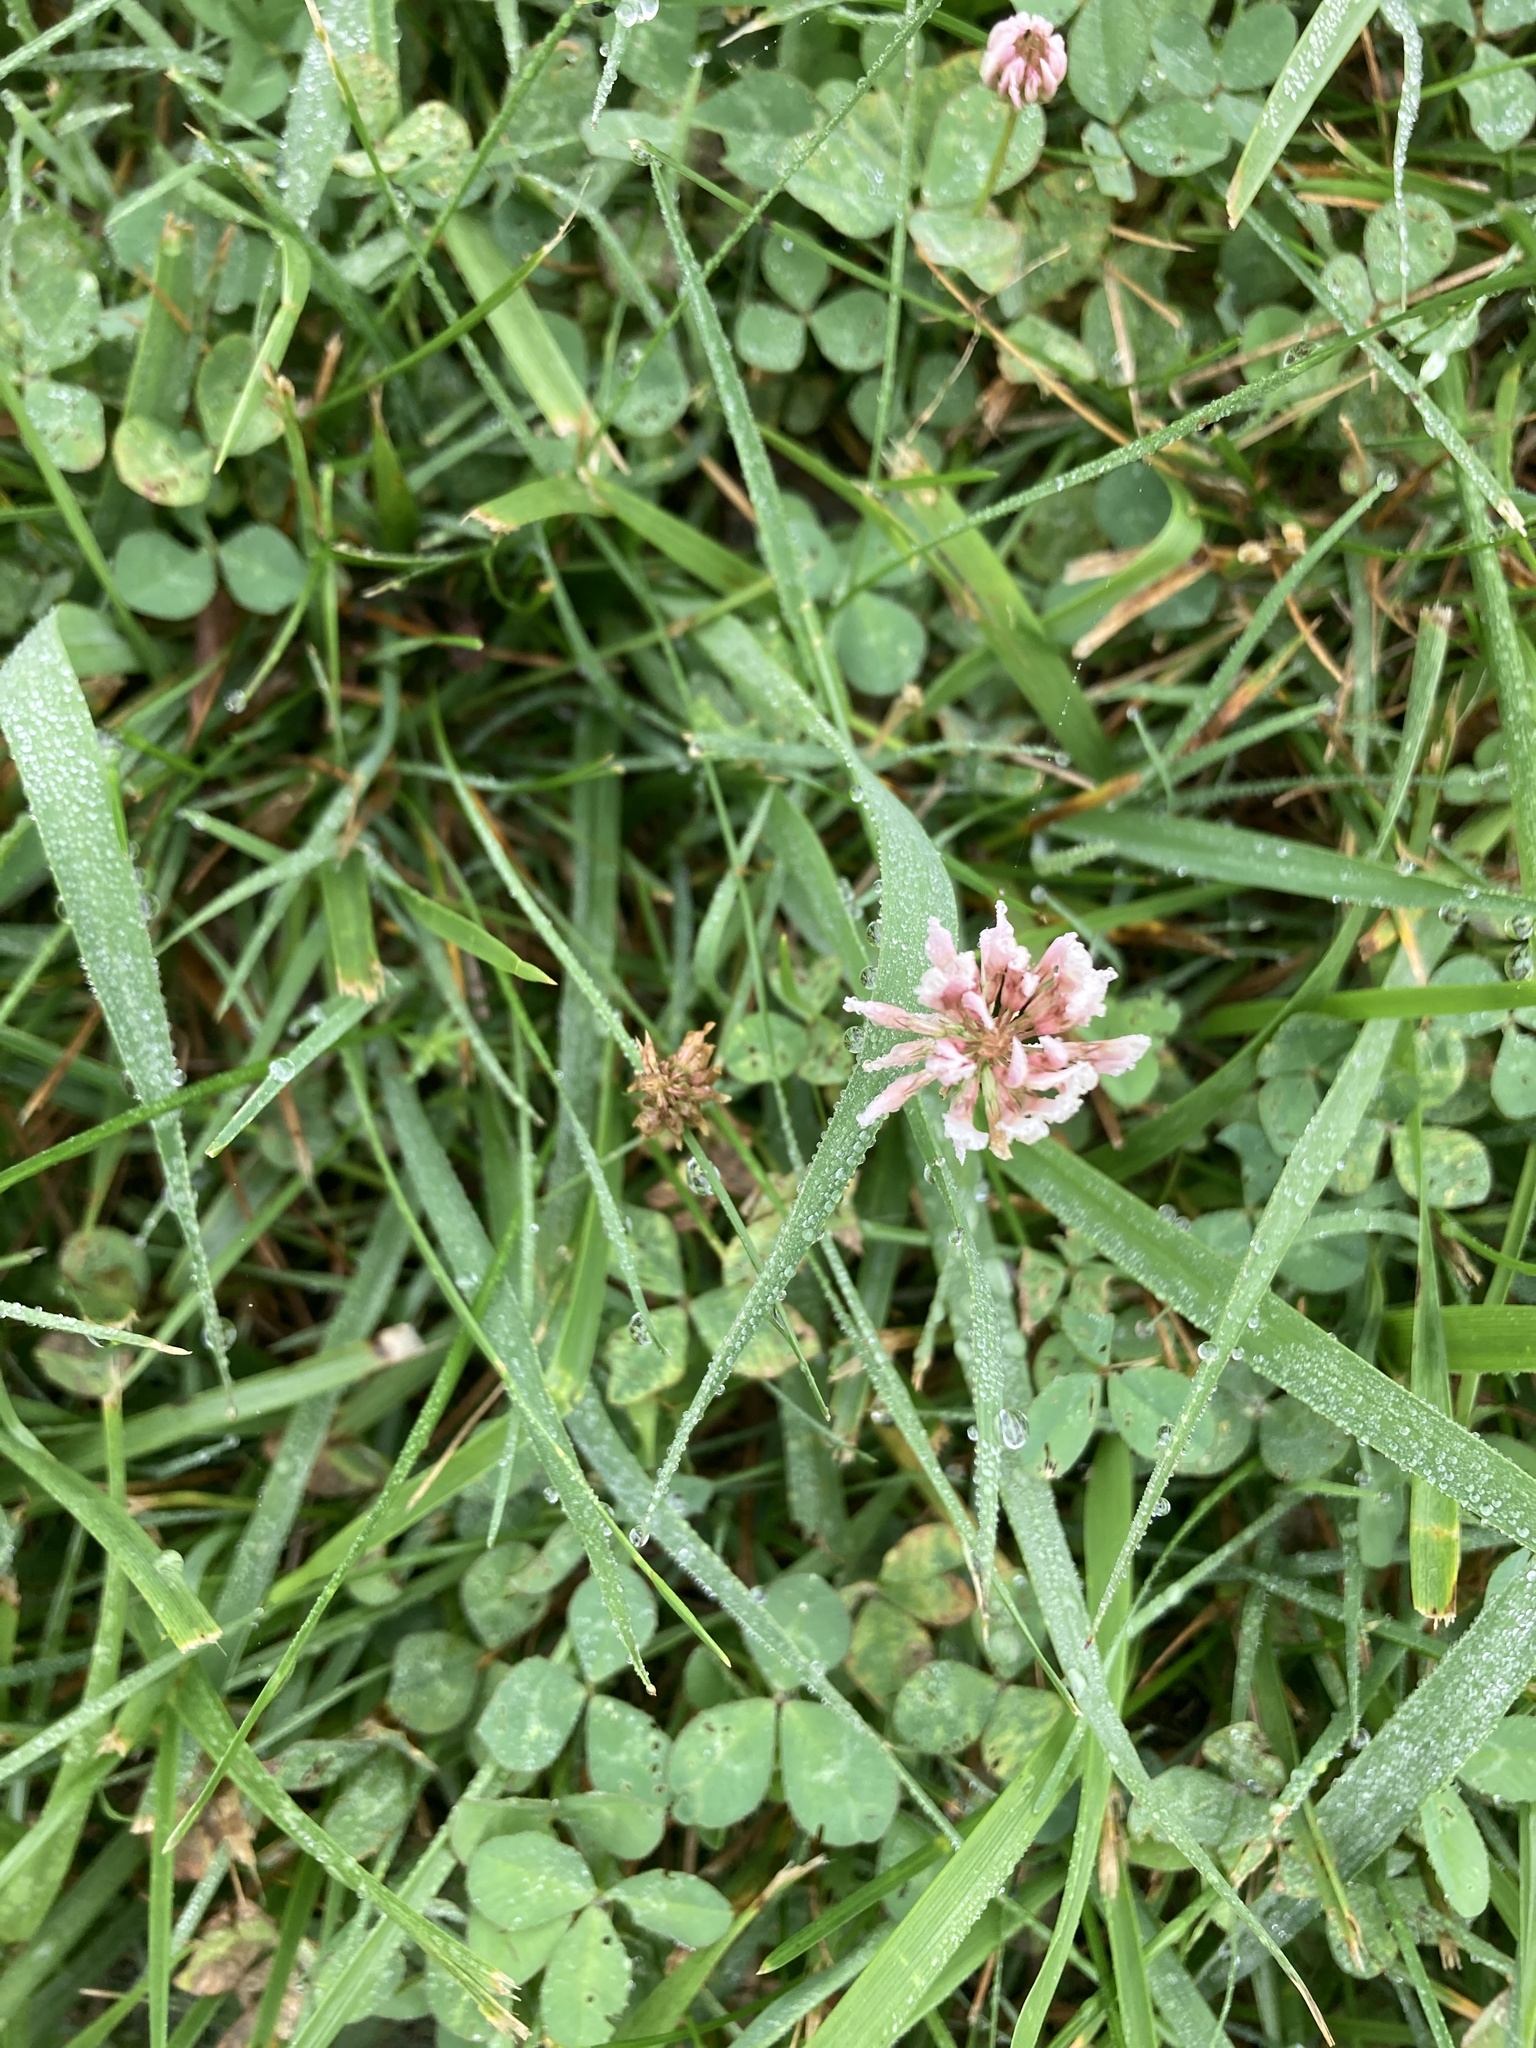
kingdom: Plantae
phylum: Tracheophyta
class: Magnoliopsida
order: Fabales
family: Fabaceae
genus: Trifolium
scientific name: Trifolium repens
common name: White clover
